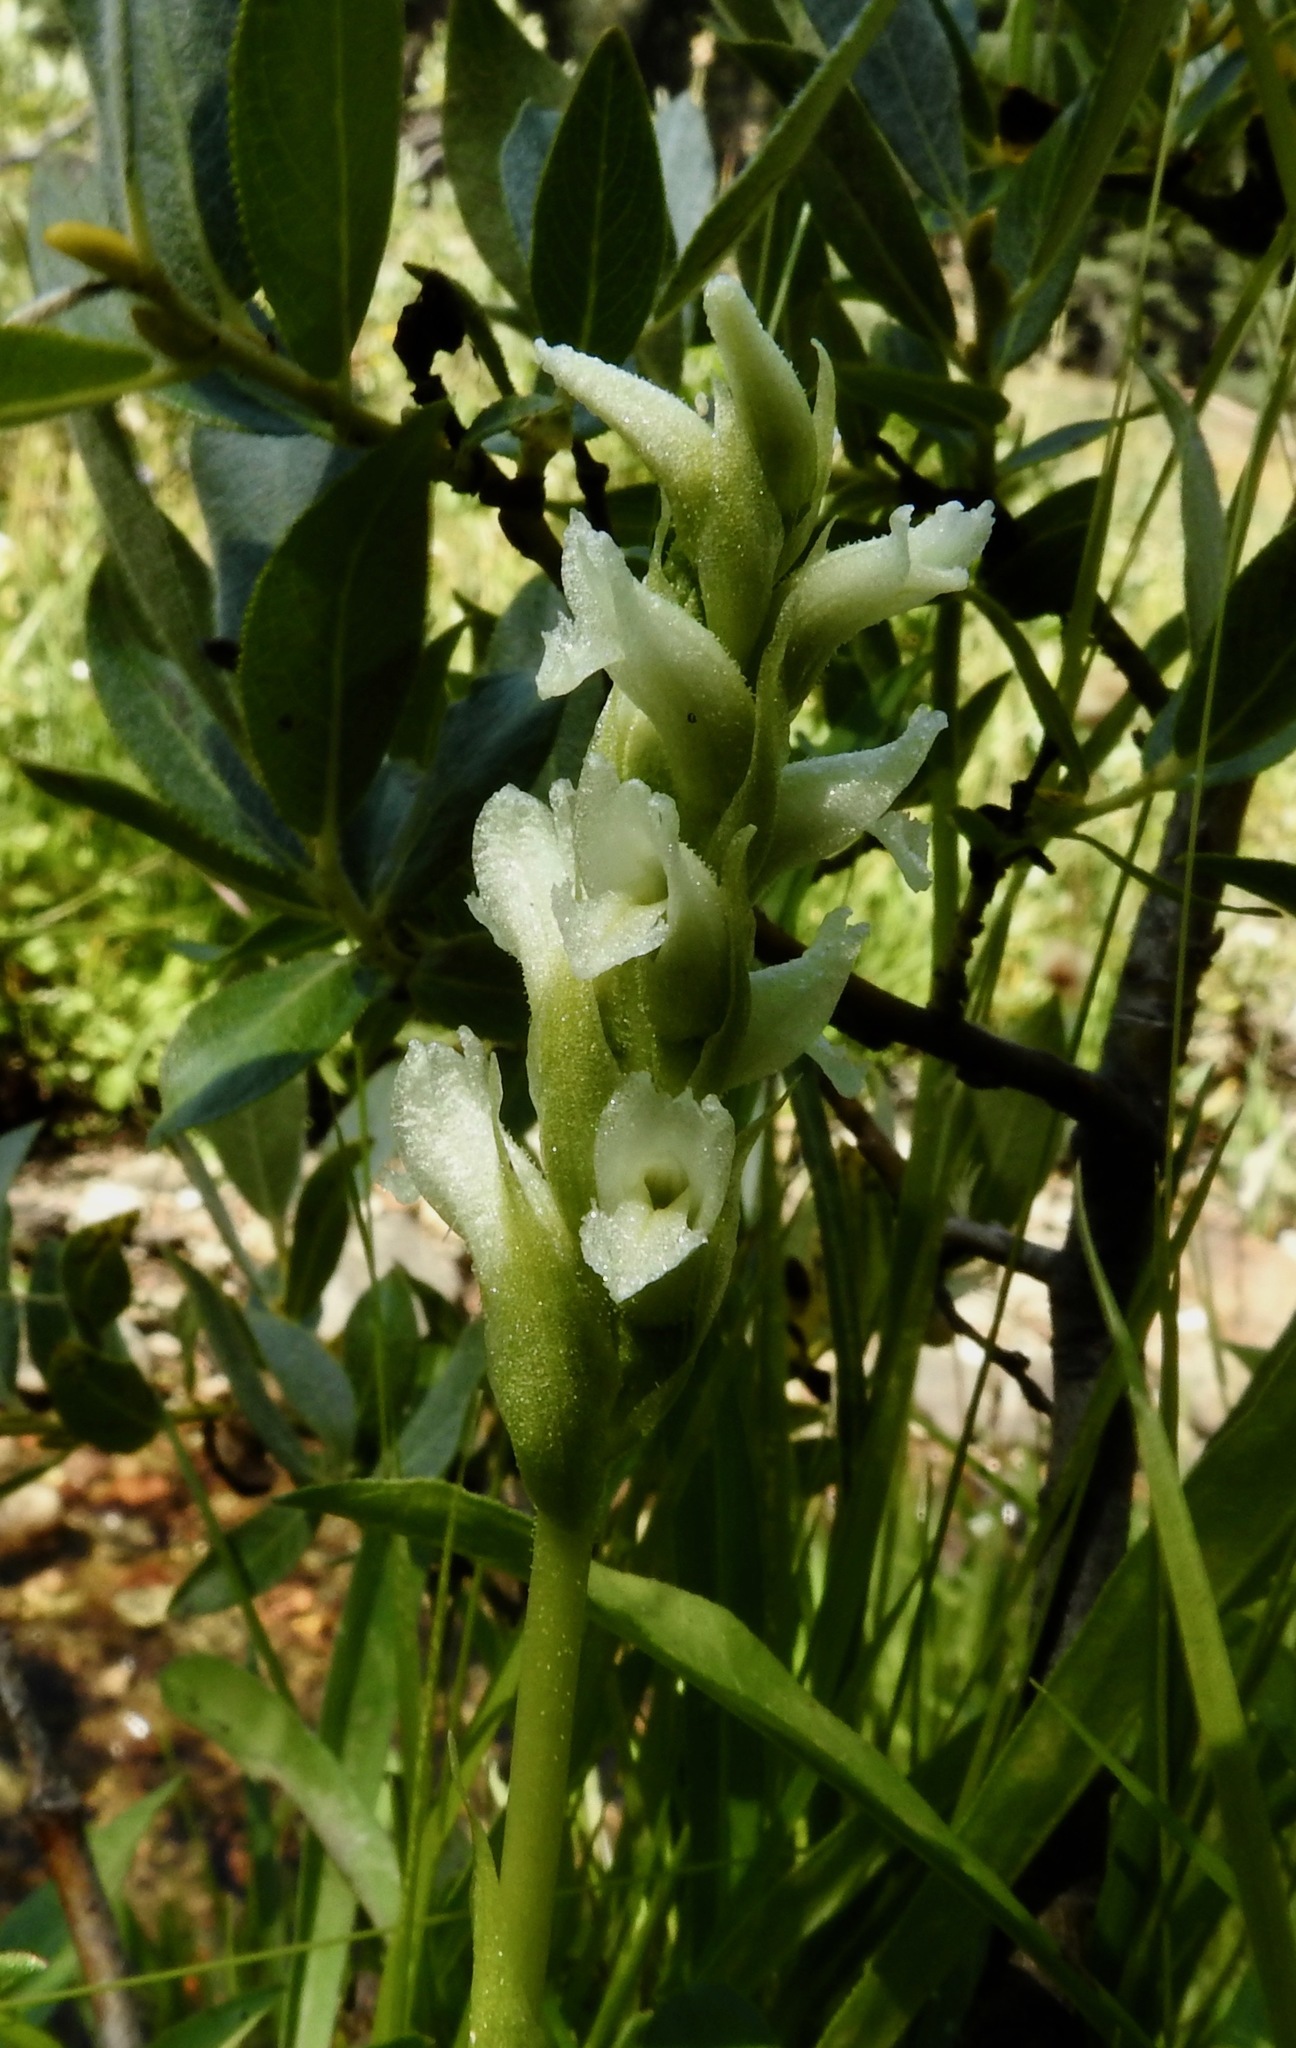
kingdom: Plantae
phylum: Tracheophyta
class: Liliopsida
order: Asparagales
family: Orchidaceae
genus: Spiranthes
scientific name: Spiranthes romanzoffiana
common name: Irish lady's-tresses
